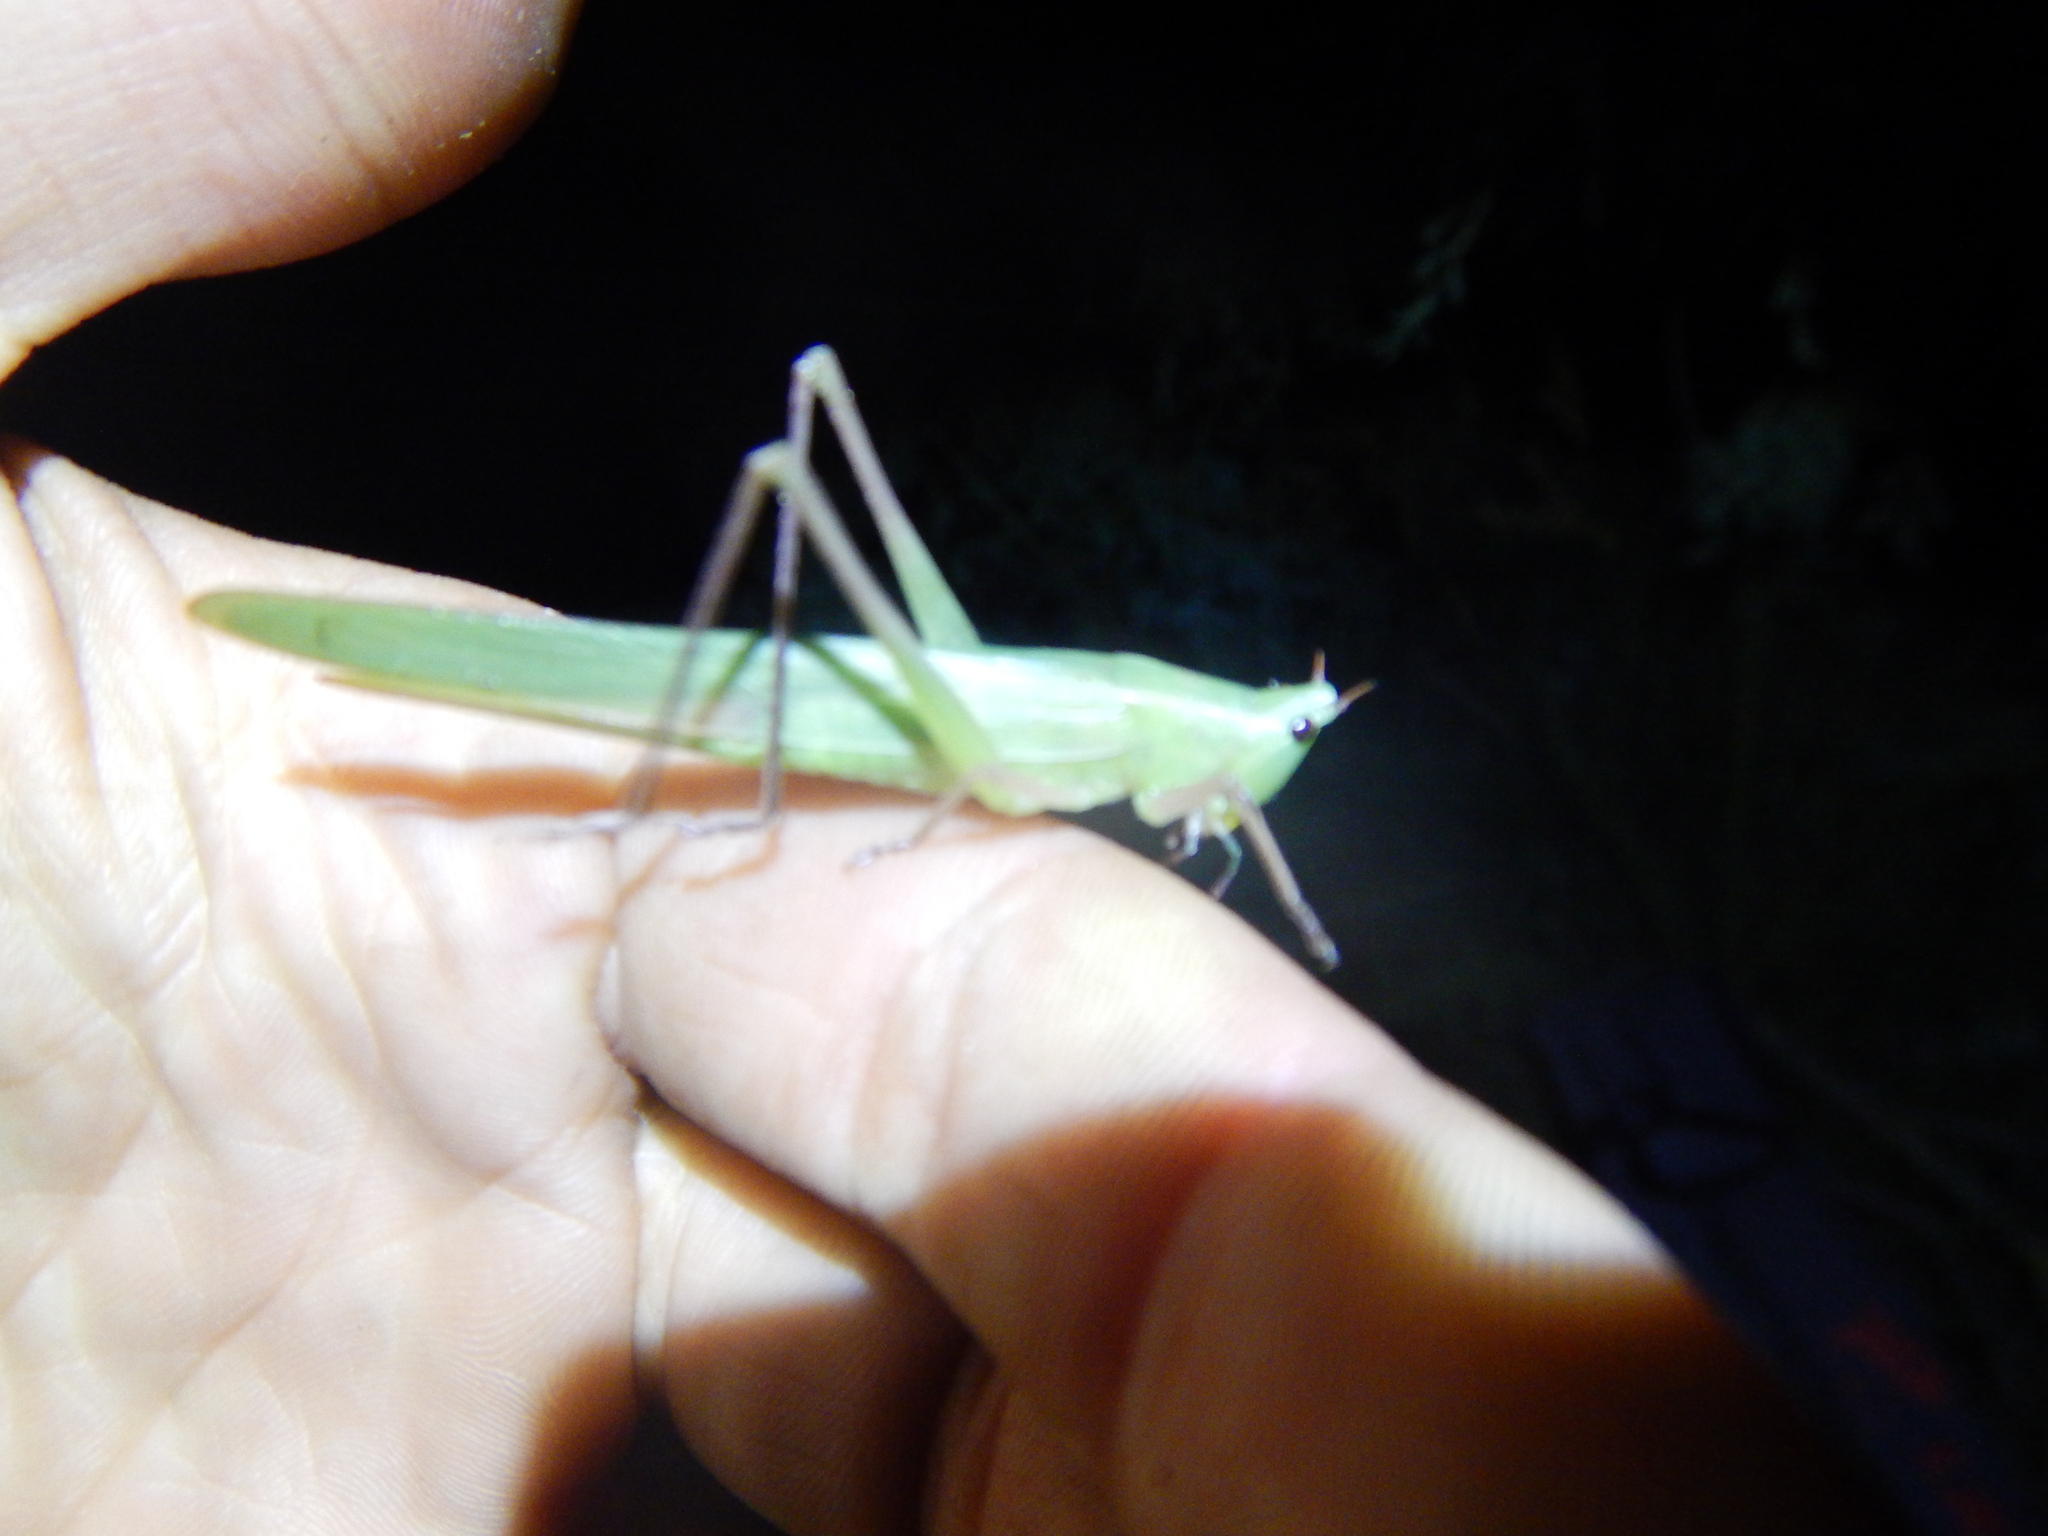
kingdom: Animalia
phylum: Arthropoda
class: Insecta
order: Orthoptera
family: Tettigoniidae
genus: Ruspolia
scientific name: Ruspolia nitidula
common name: Large conehead
